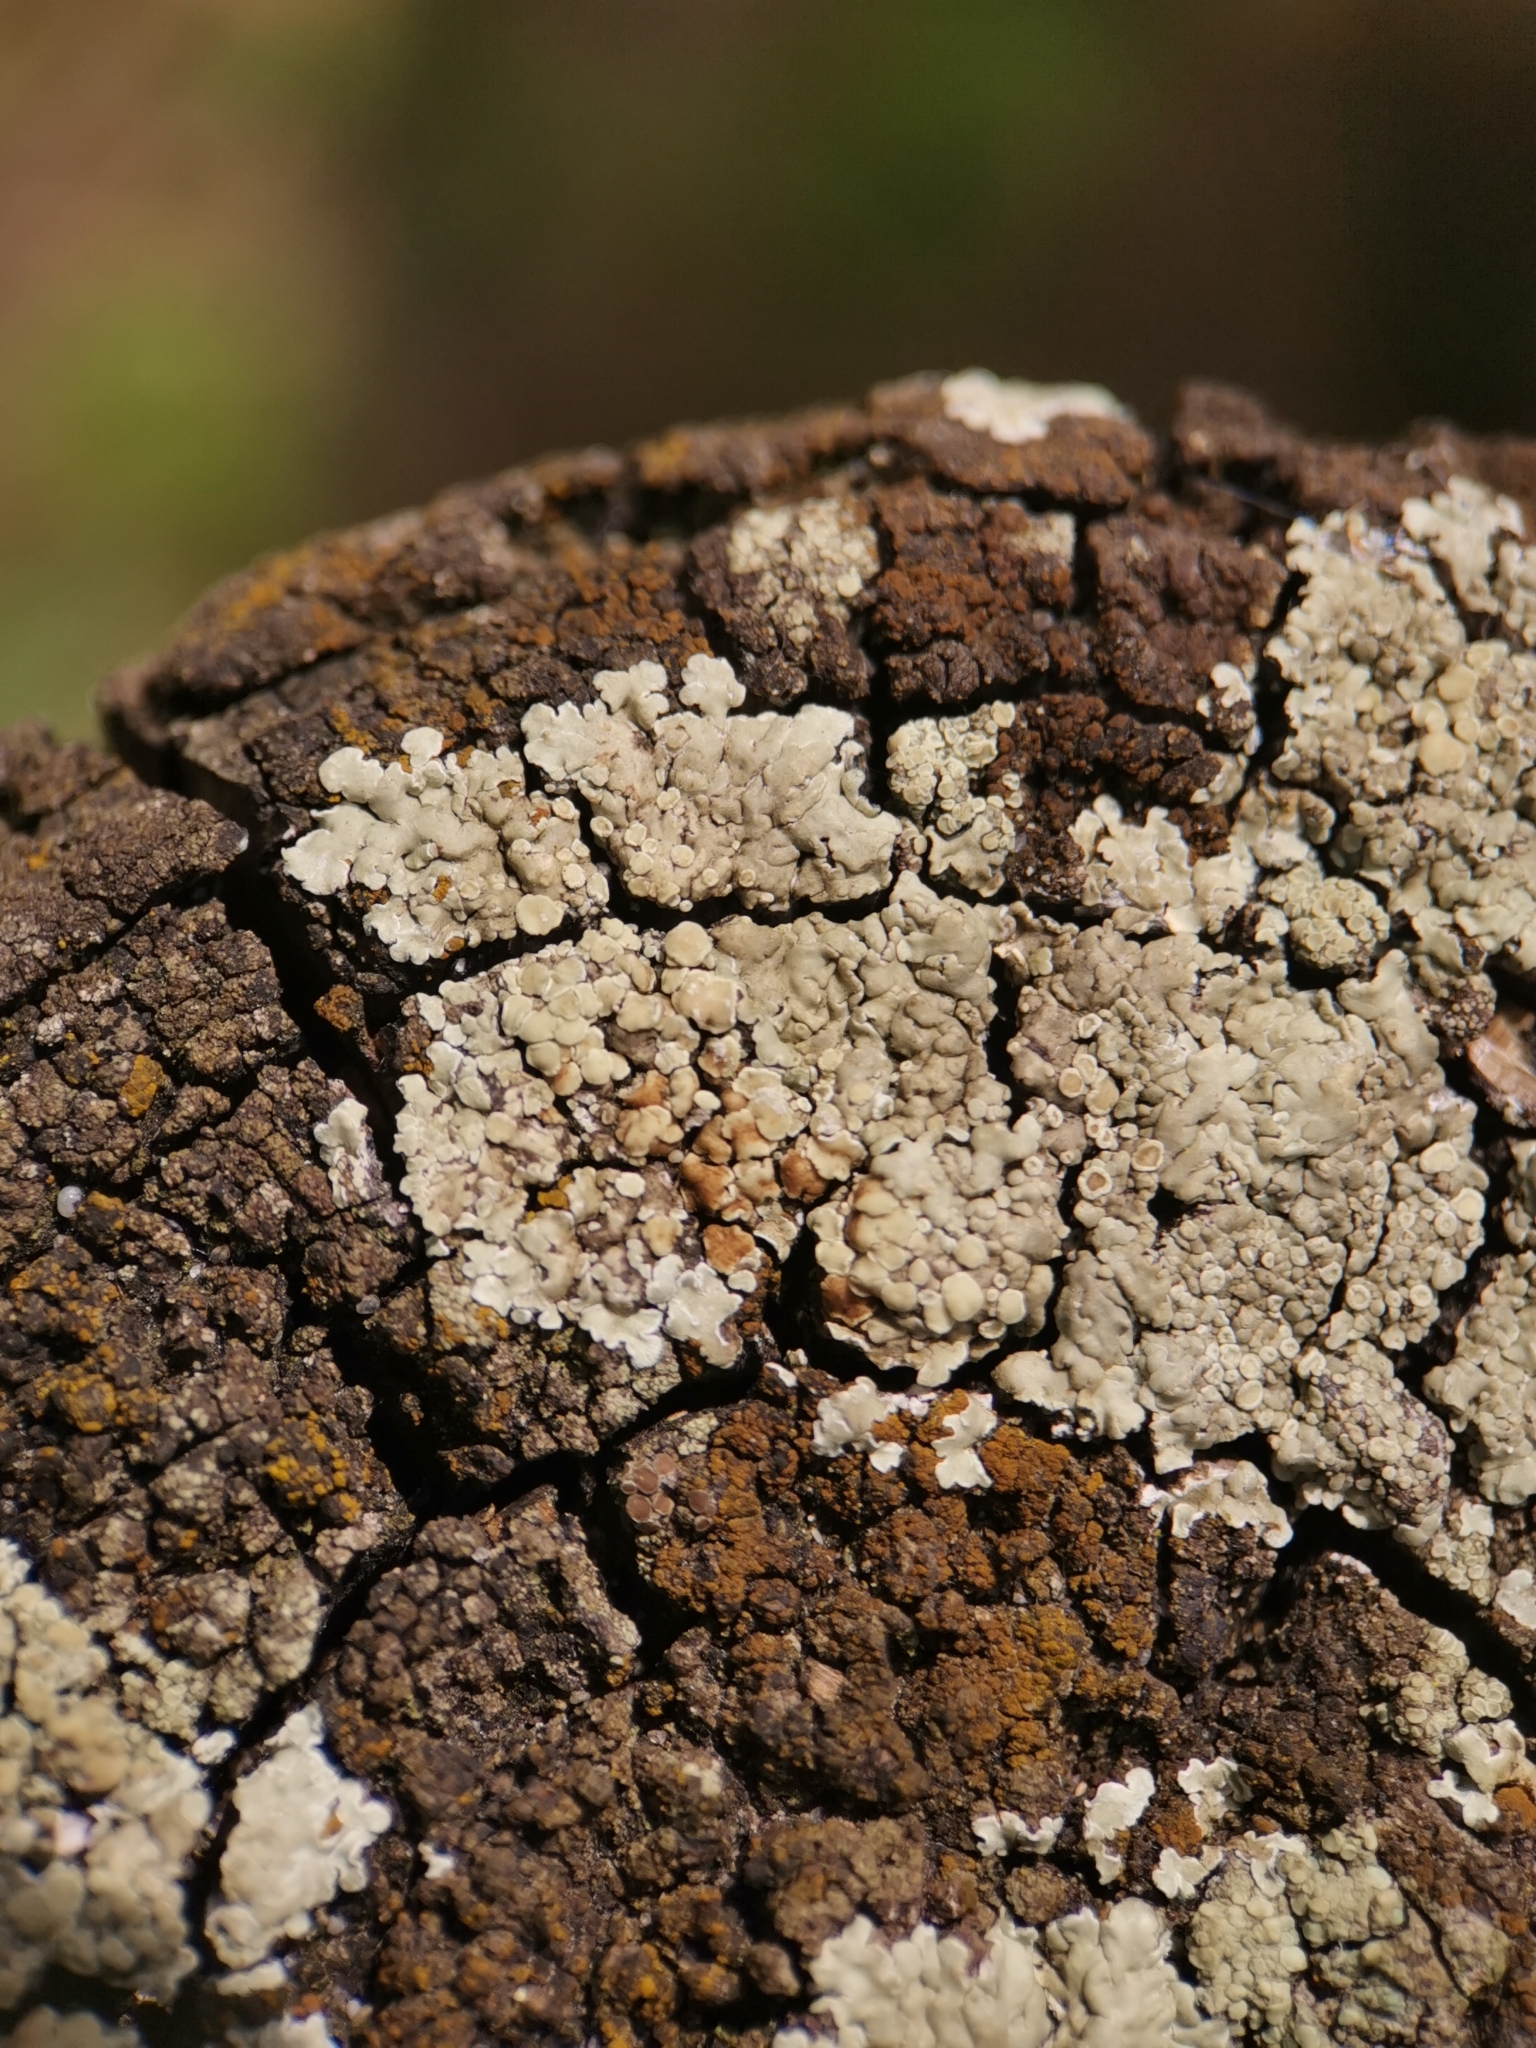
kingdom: Fungi
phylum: Ascomycota
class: Lecanoromycetes
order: Lecanorales
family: Lecanoraceae
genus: Protoparmeliopsis
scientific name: Protoparmeliopsis muralis
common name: Stonewall rim lichen
